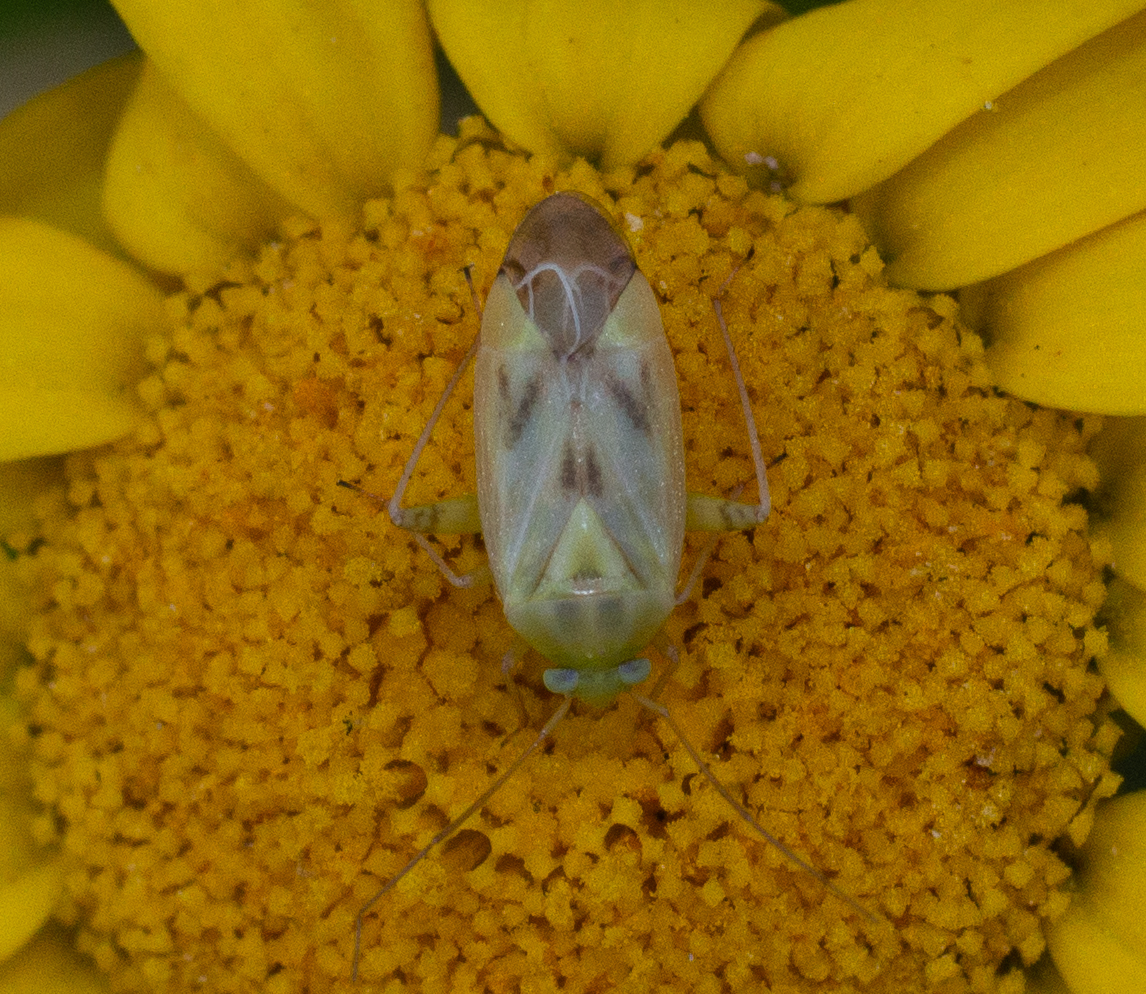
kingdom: Animalia
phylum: Arthropoda
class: Insecta
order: Hemiptera
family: Miridae
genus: Taylorilygus
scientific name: Taylorilygus apicalis
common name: Plant bug
